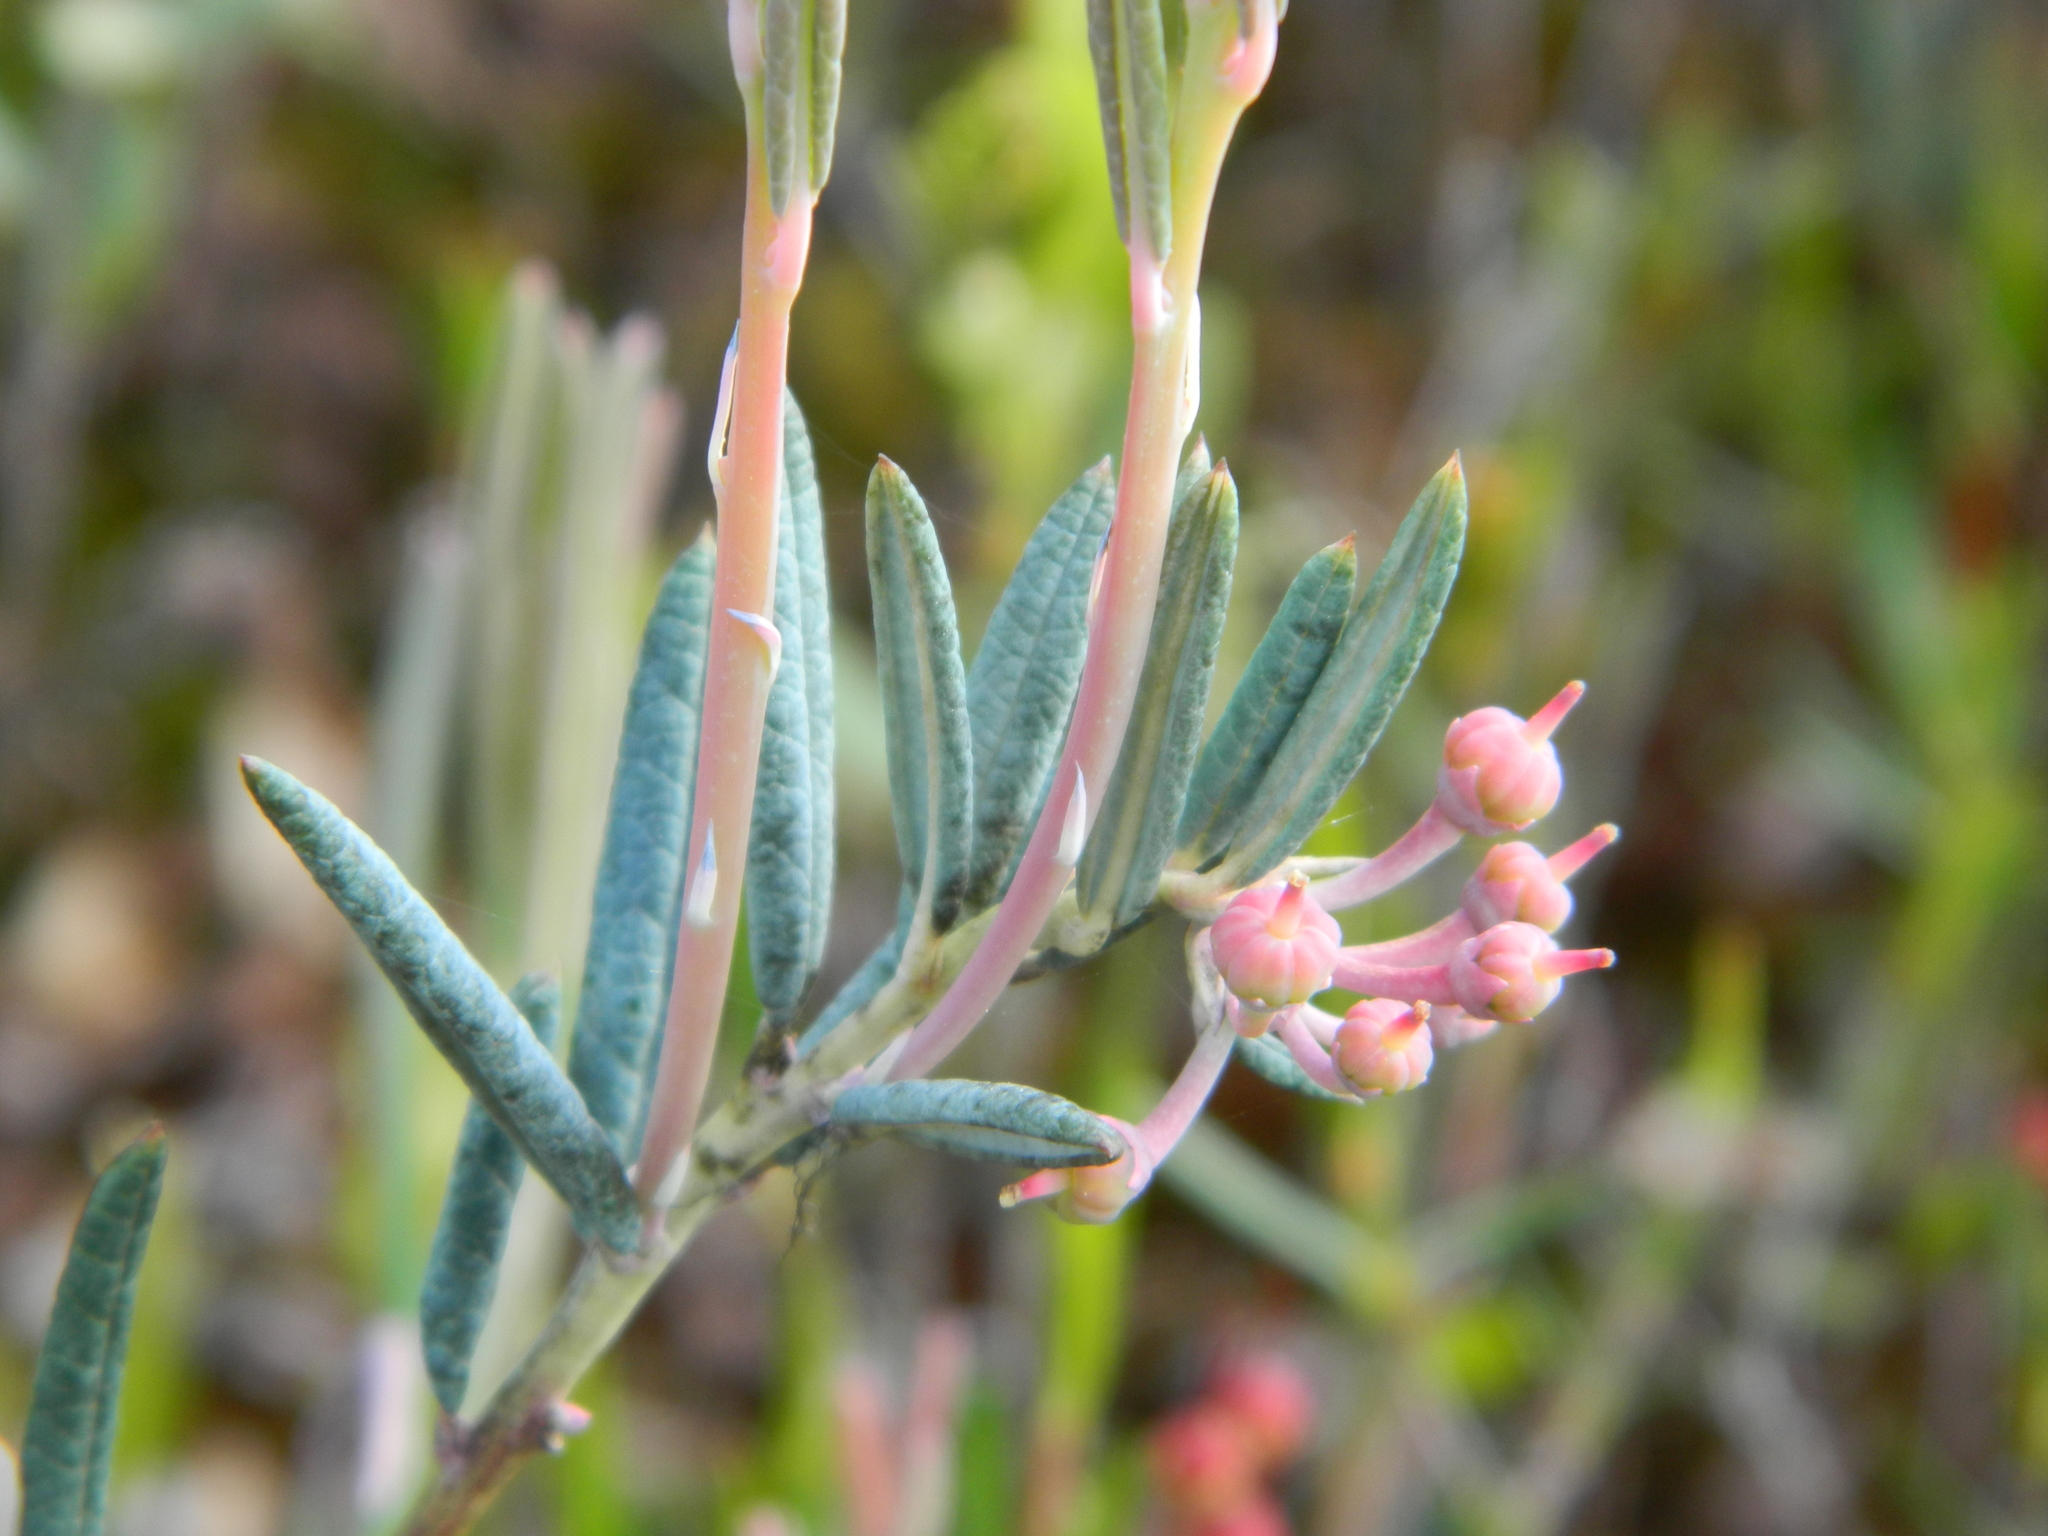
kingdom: Plantae
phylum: Tracheophyta
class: Magnoliopsida
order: Ericales
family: Ericaceae
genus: Andromeda
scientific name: Andromeda polifolia
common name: Bog-rosemary
